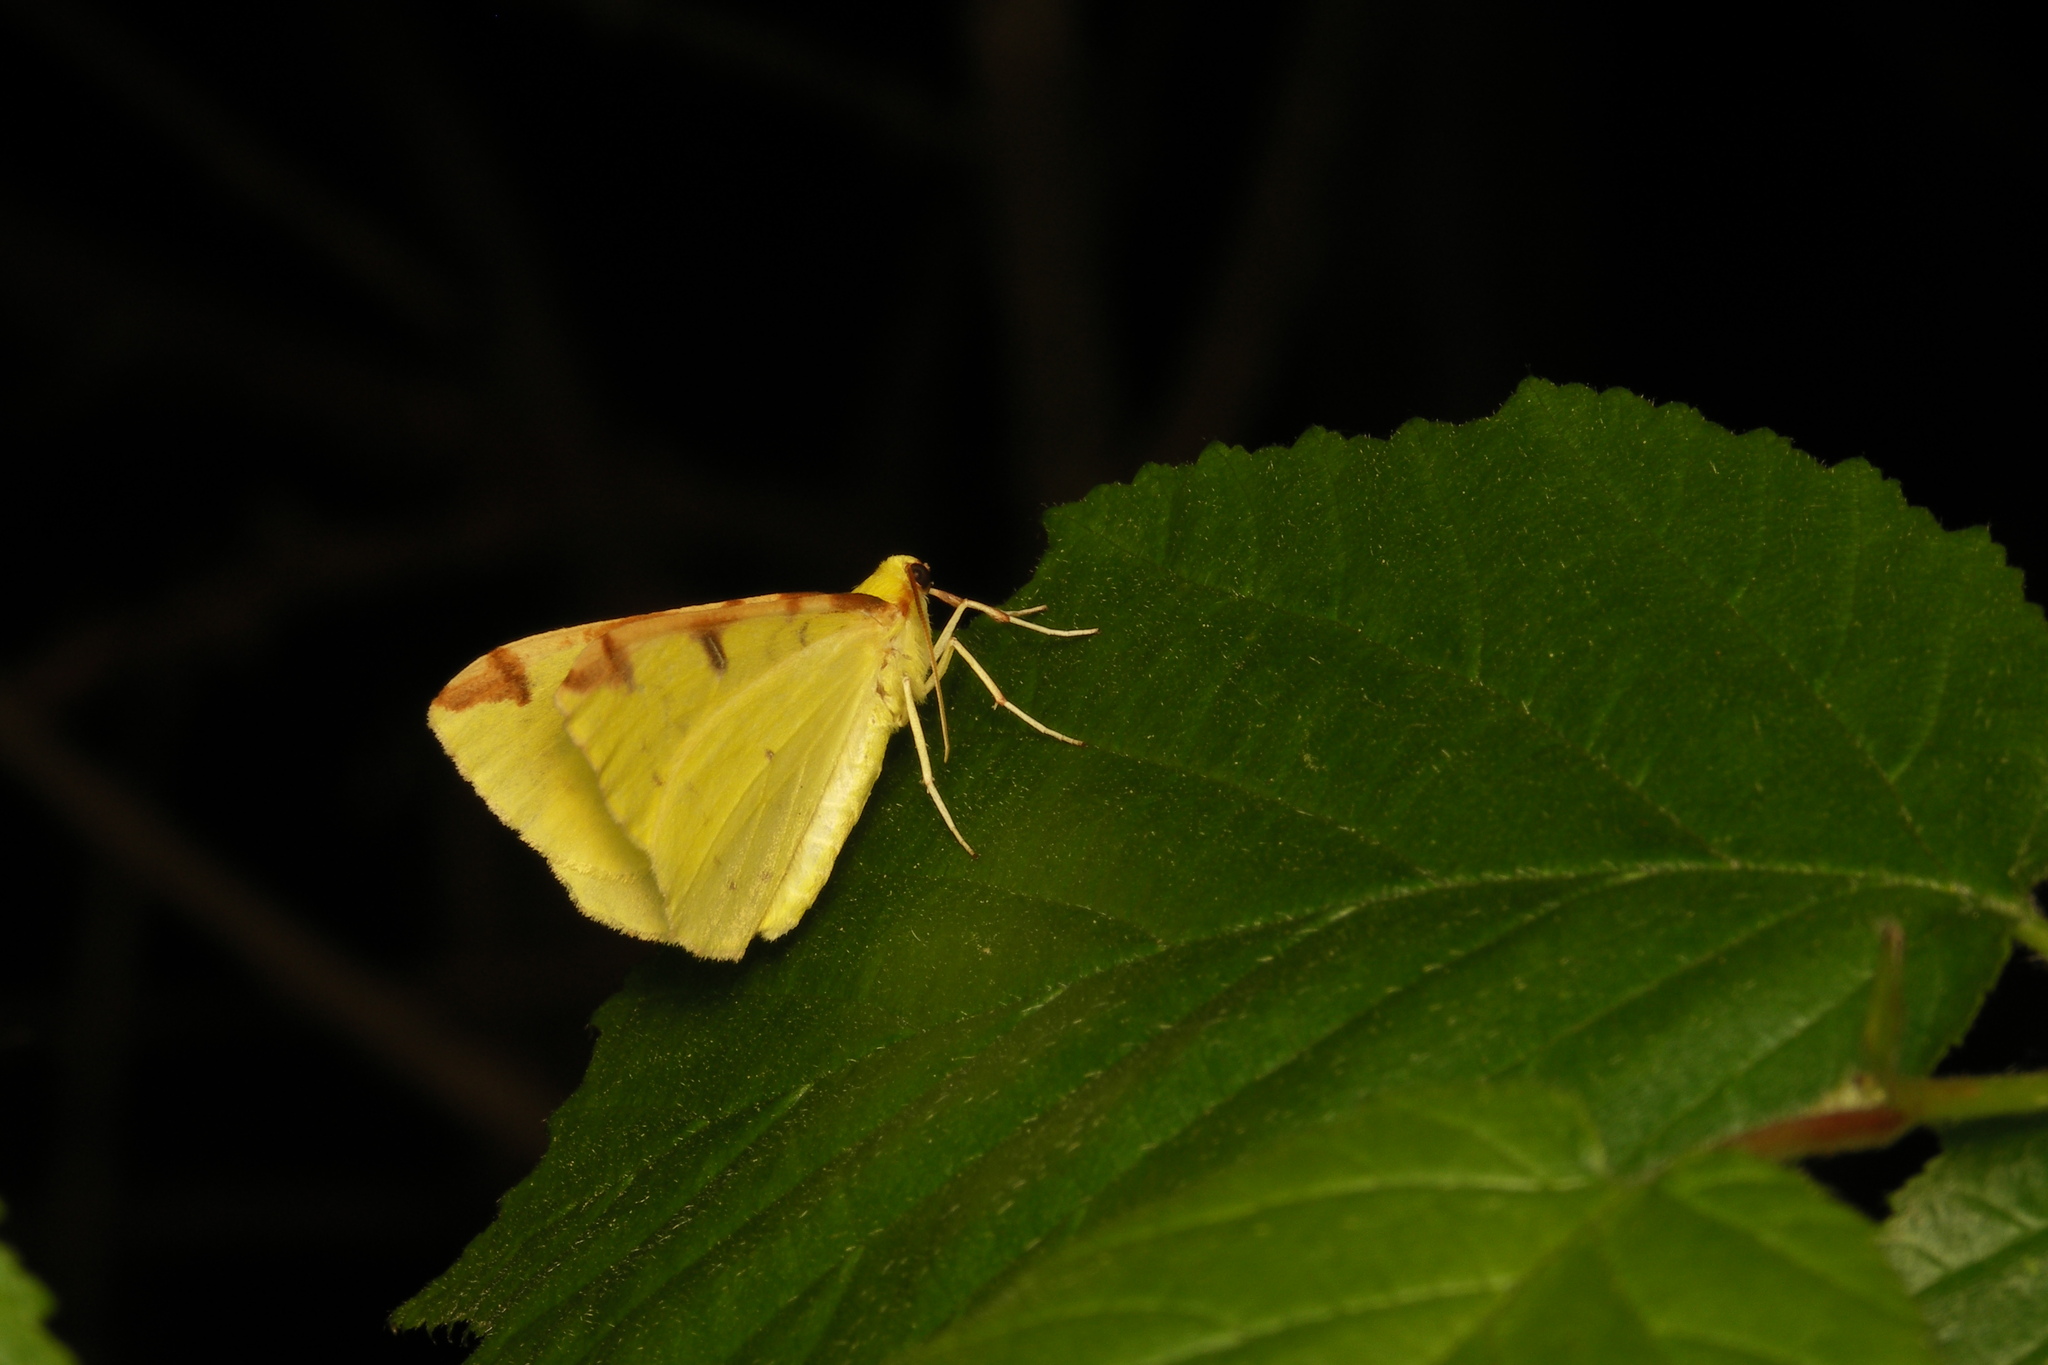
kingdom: Animalia
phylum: Arthropoda
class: Insecta
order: Lepidoptera
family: Geometridae
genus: Opisthograptis
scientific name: Opisthograptis luteolata
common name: Brimstone moth
